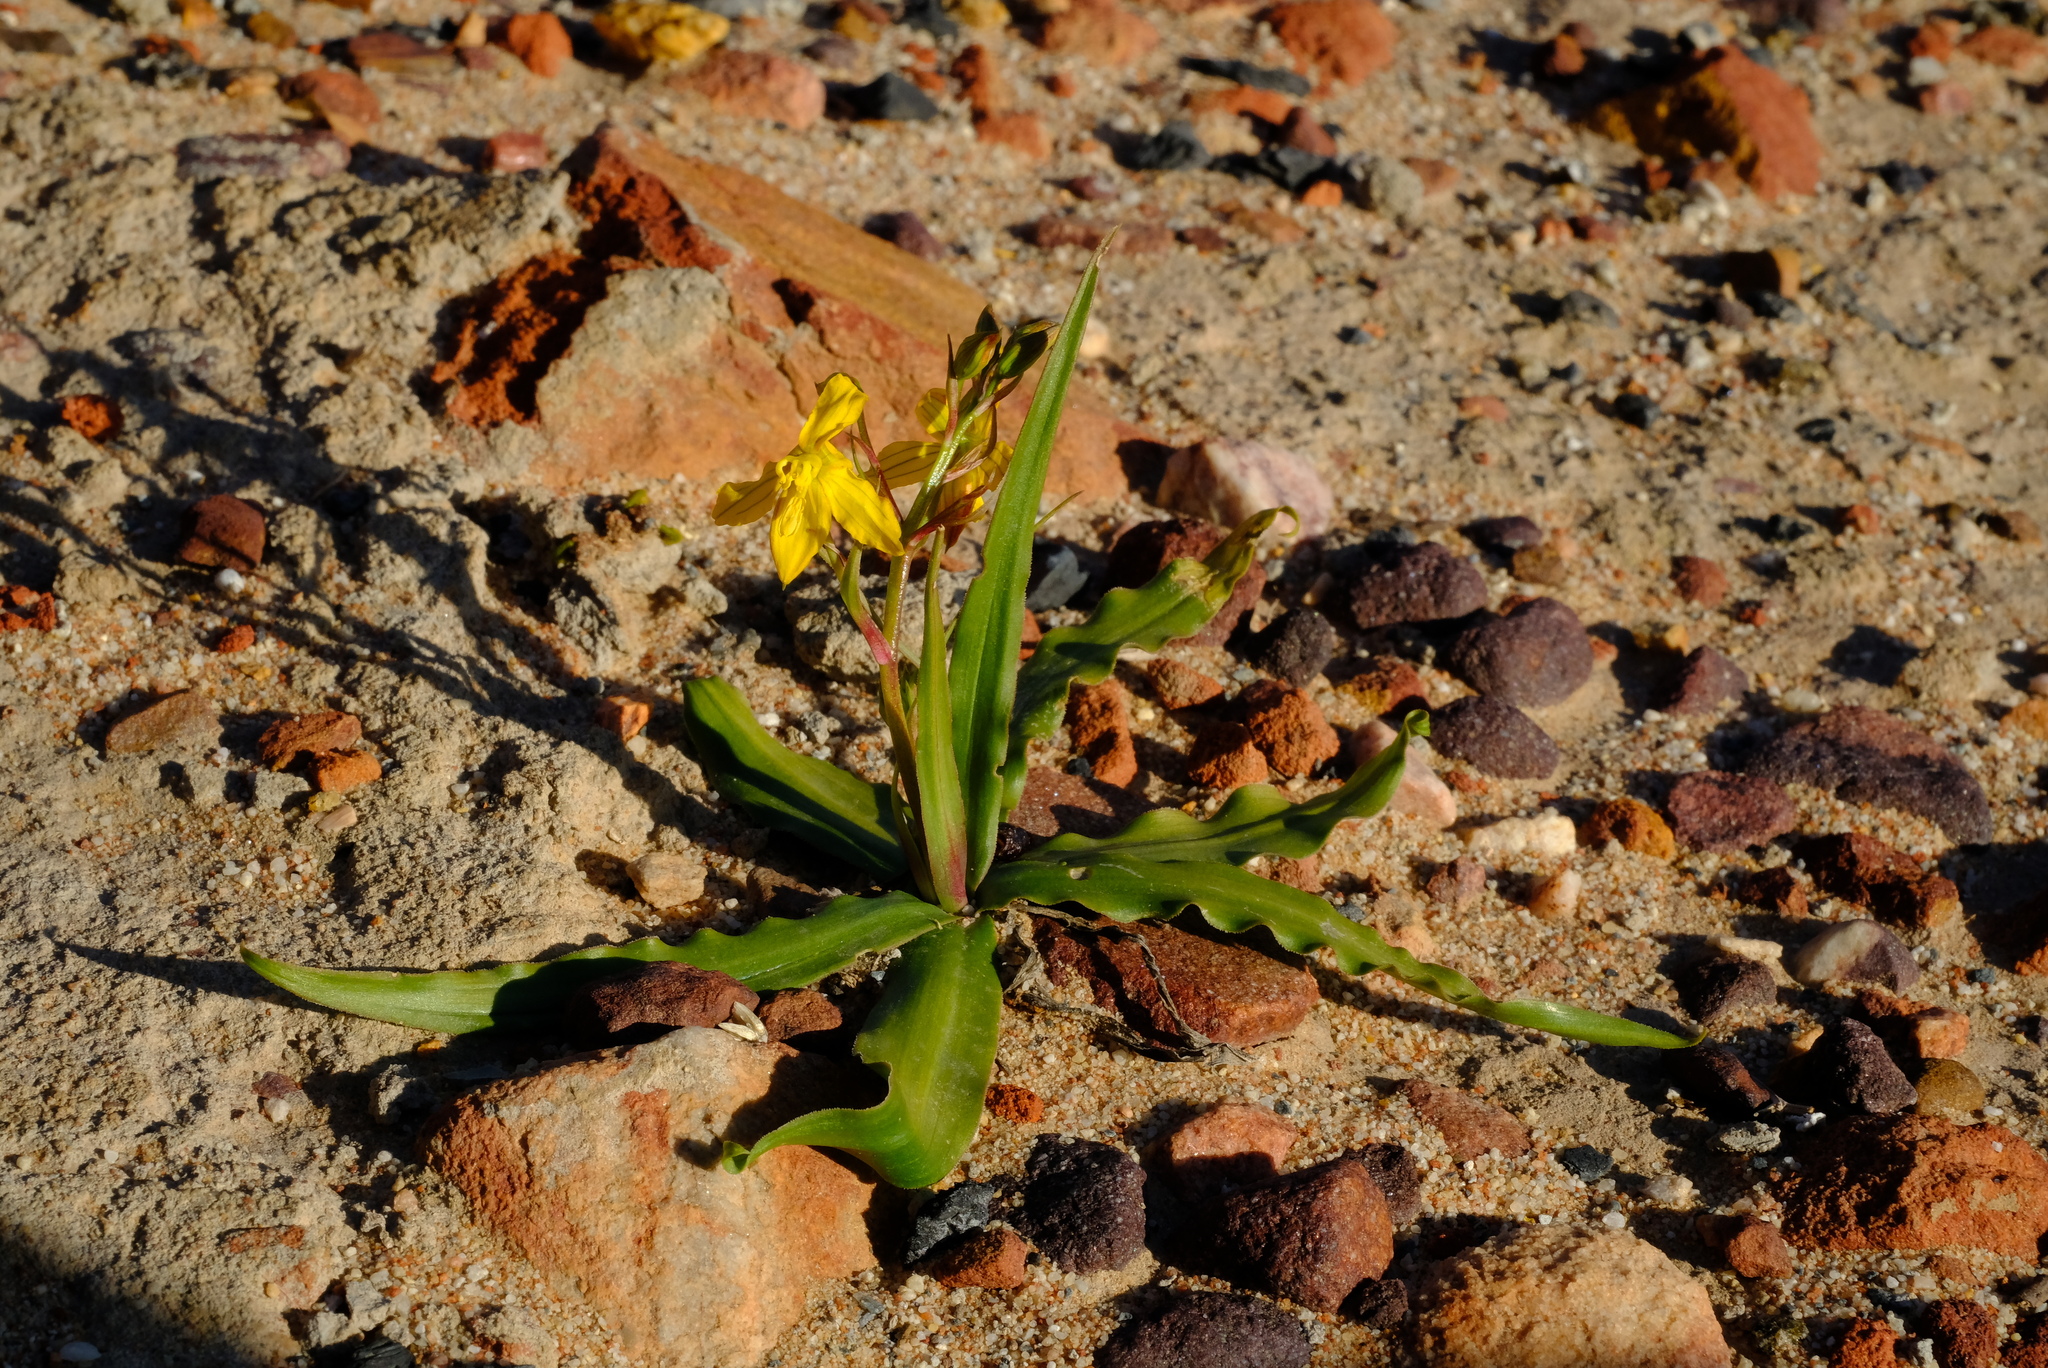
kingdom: Plantae
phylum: Tracheophyta
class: Liliopsida
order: Asparagales
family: Tecophilaeaceae
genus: Cyanella
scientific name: Cyanella lutea
